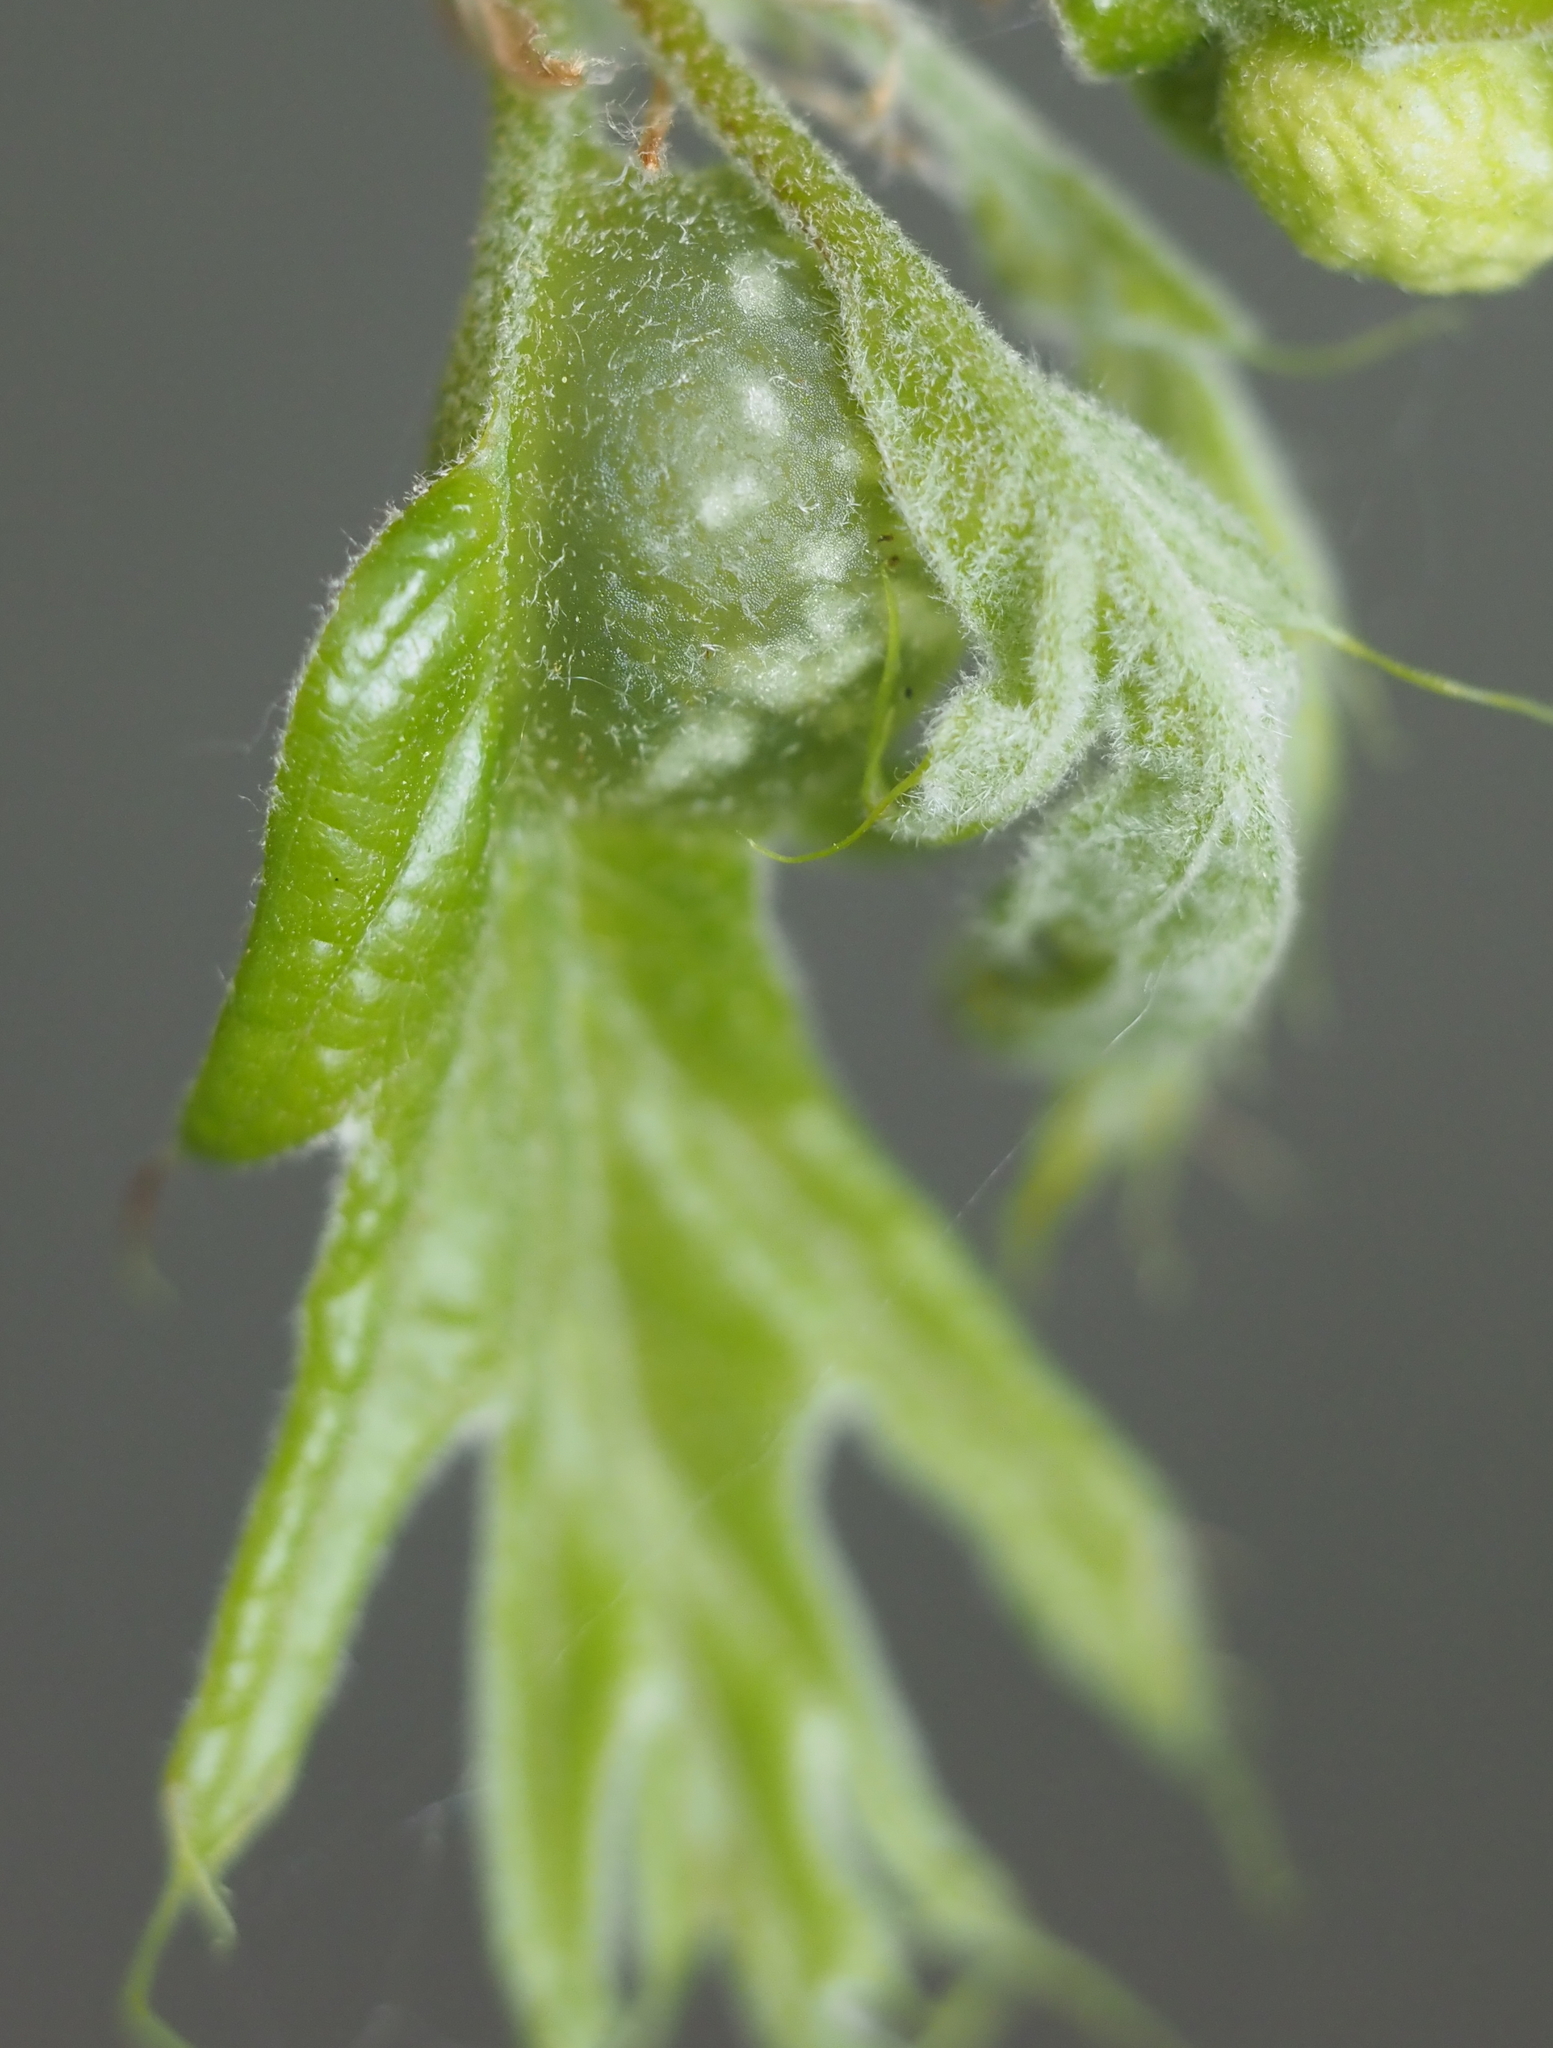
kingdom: Animalia
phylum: Arthropoda
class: Insecta
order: Hymenoptera
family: Cynipidae
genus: Dryocosmus
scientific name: Dryocosmus quercuspalustris
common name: Succulent oak gall wasp
